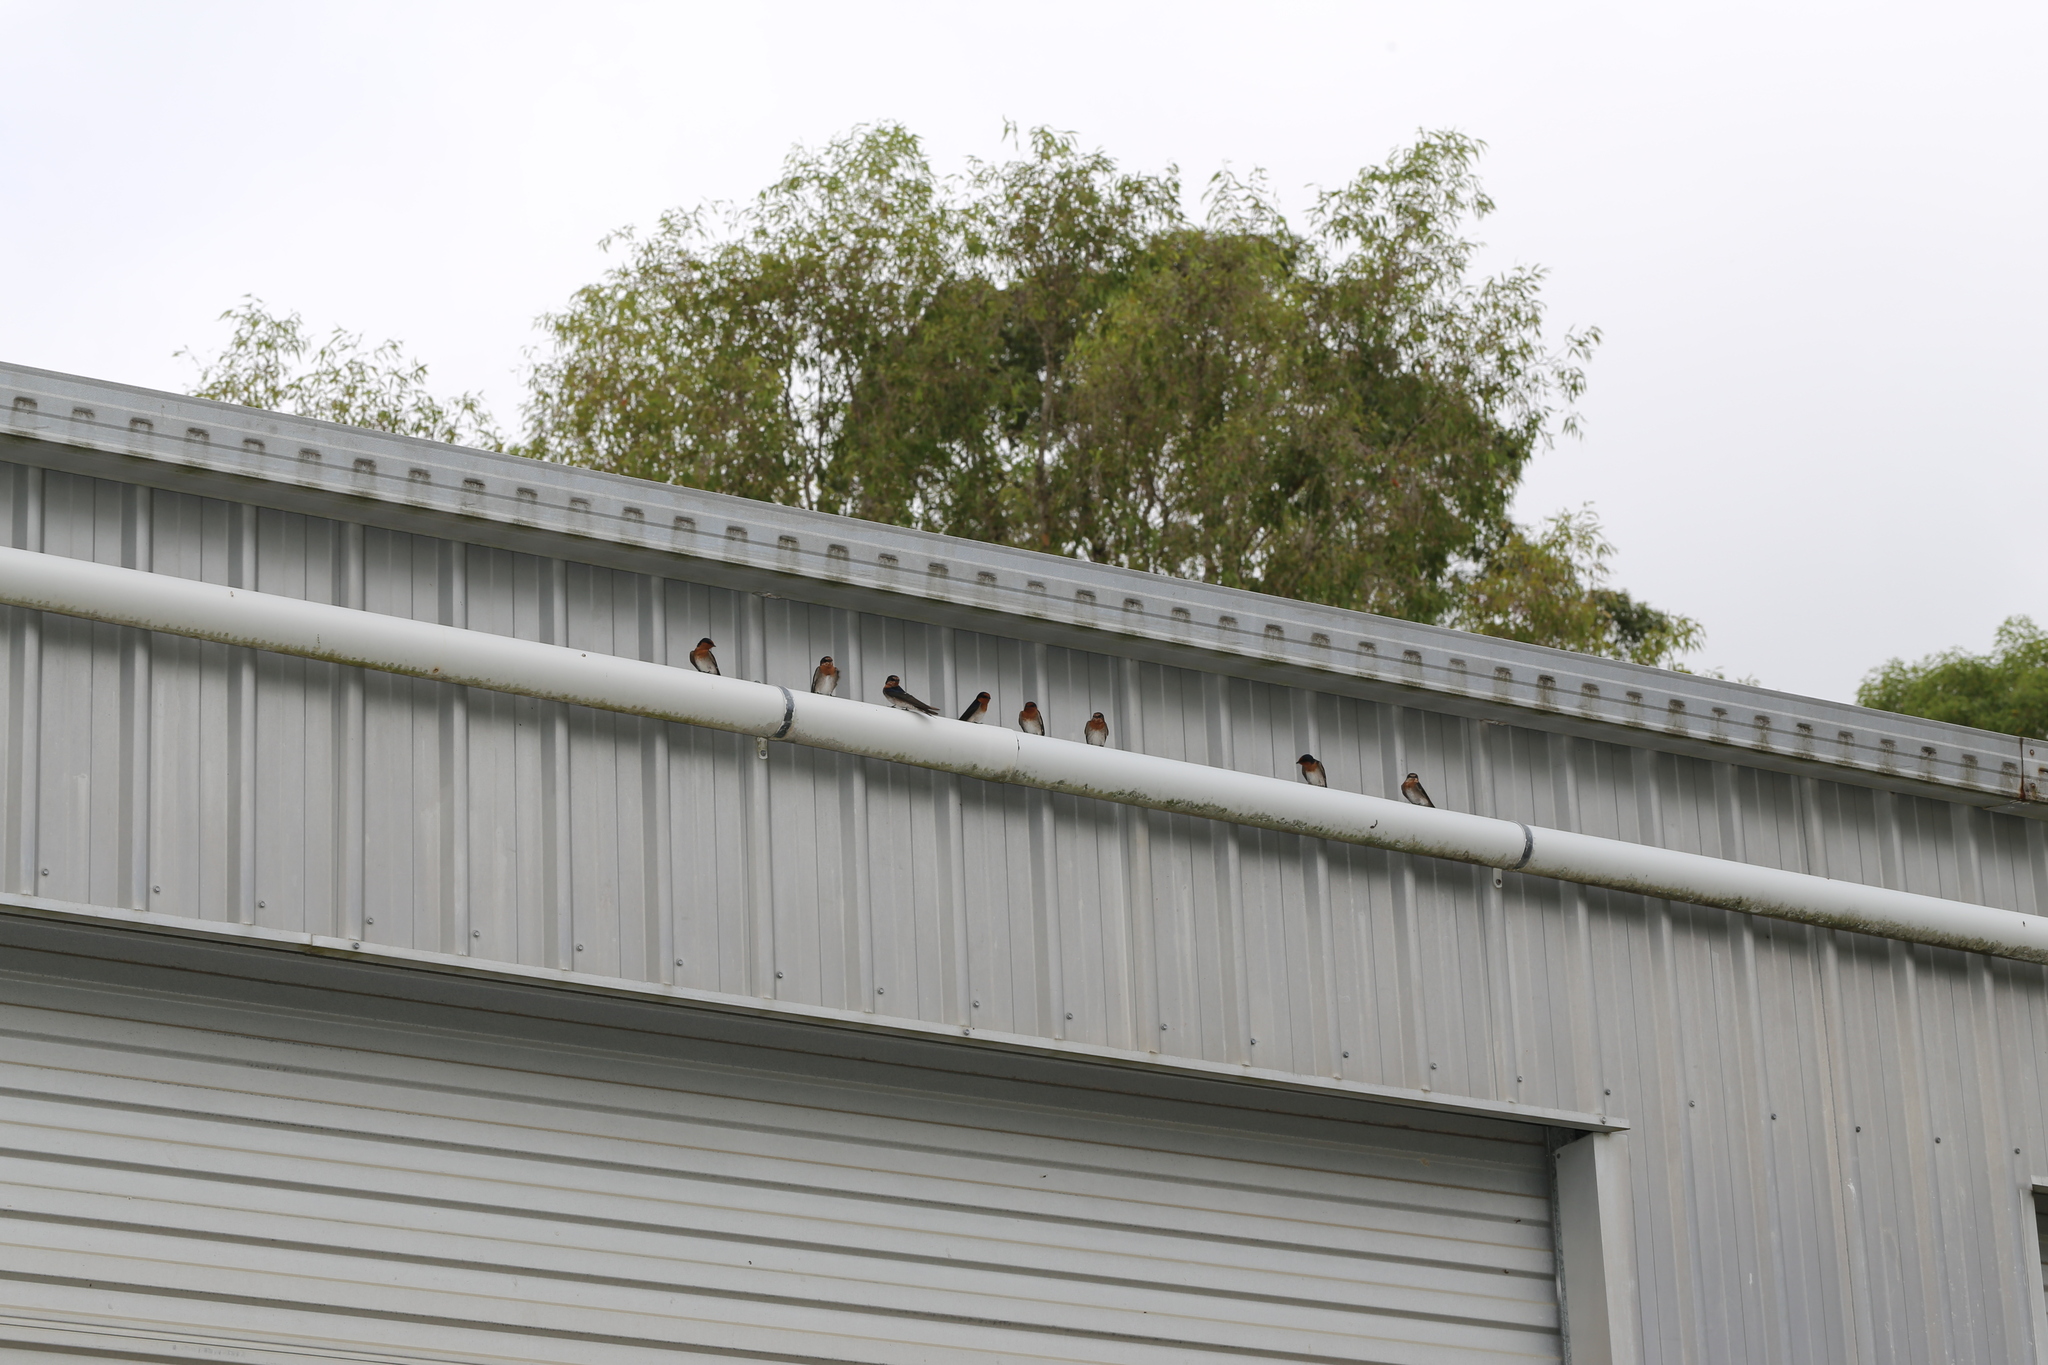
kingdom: Animalia
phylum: Chordata
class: Aves
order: Passeriformes
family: Hirundinidae
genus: Hirundo
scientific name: Hirundo neoxena
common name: Welcome swallow
